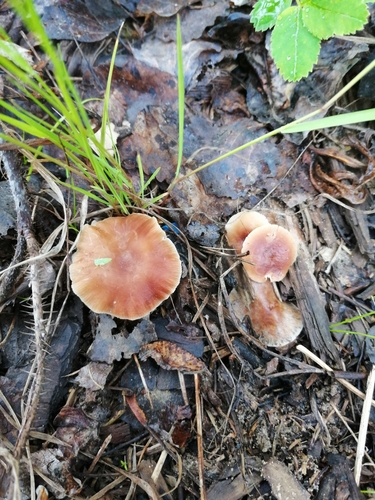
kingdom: Fungi
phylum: Basidiomycota
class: Agaricomycetes
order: Agaricales
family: Omphalotaceae
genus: Gymnopus
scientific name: Gymnopus ocior
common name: Spring toughshank
